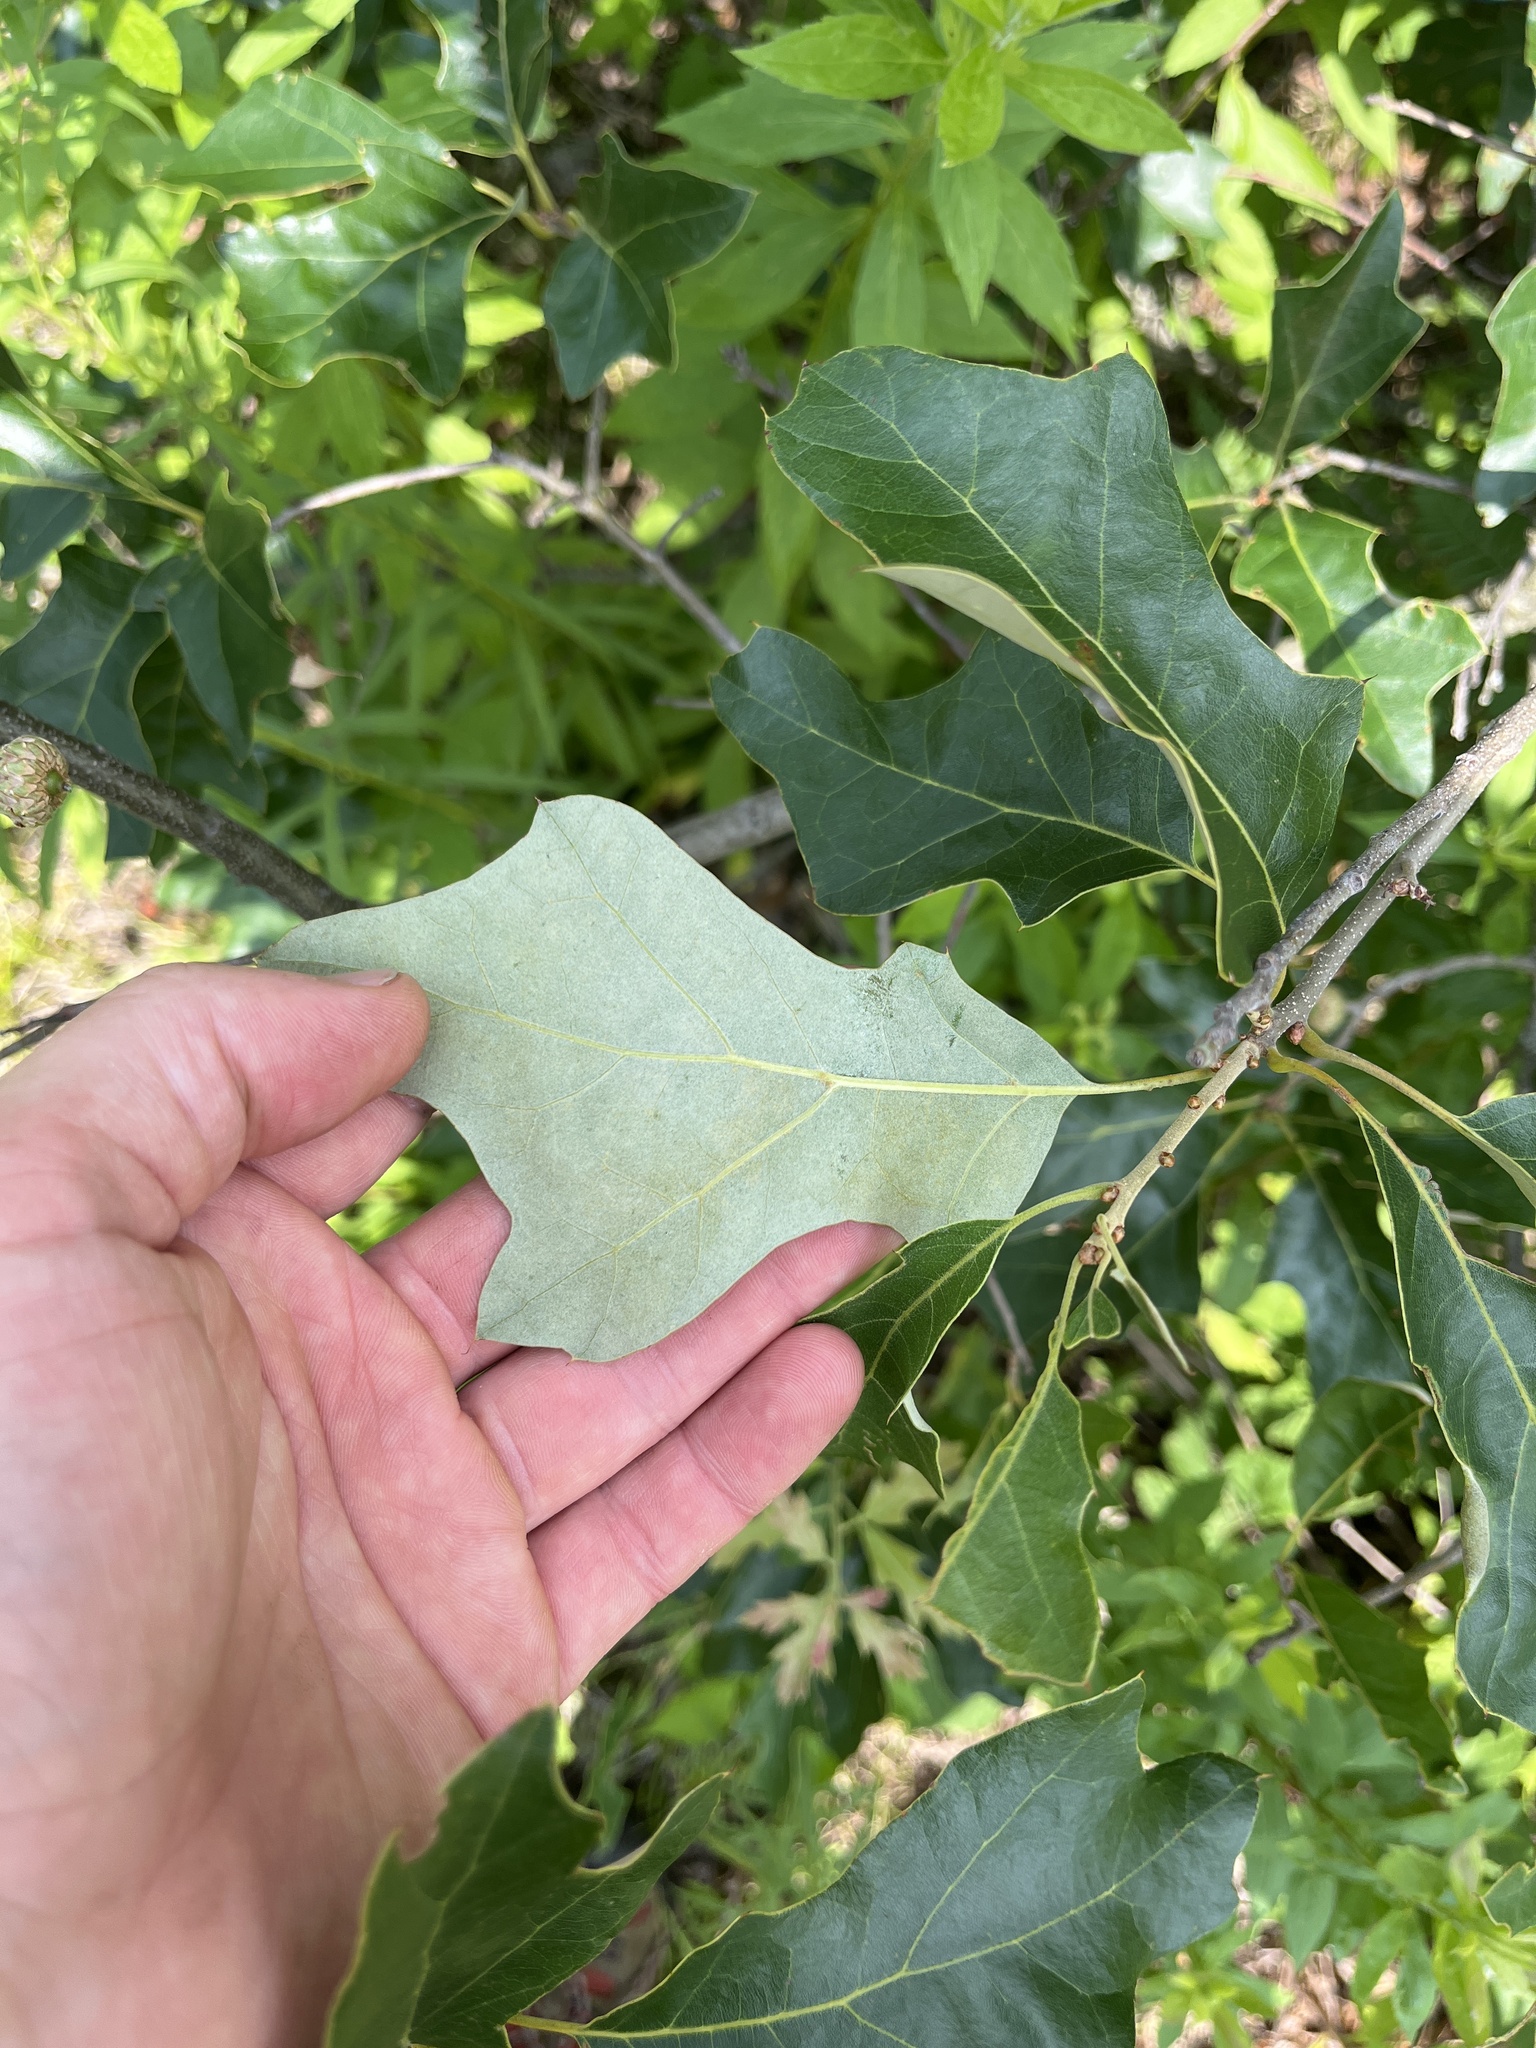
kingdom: Plantae
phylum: Tracheophyta
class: Magnoliopsida
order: Fagales
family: Fagaceae
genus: Quercus
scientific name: Quercus ilicifolia
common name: Bear oak
